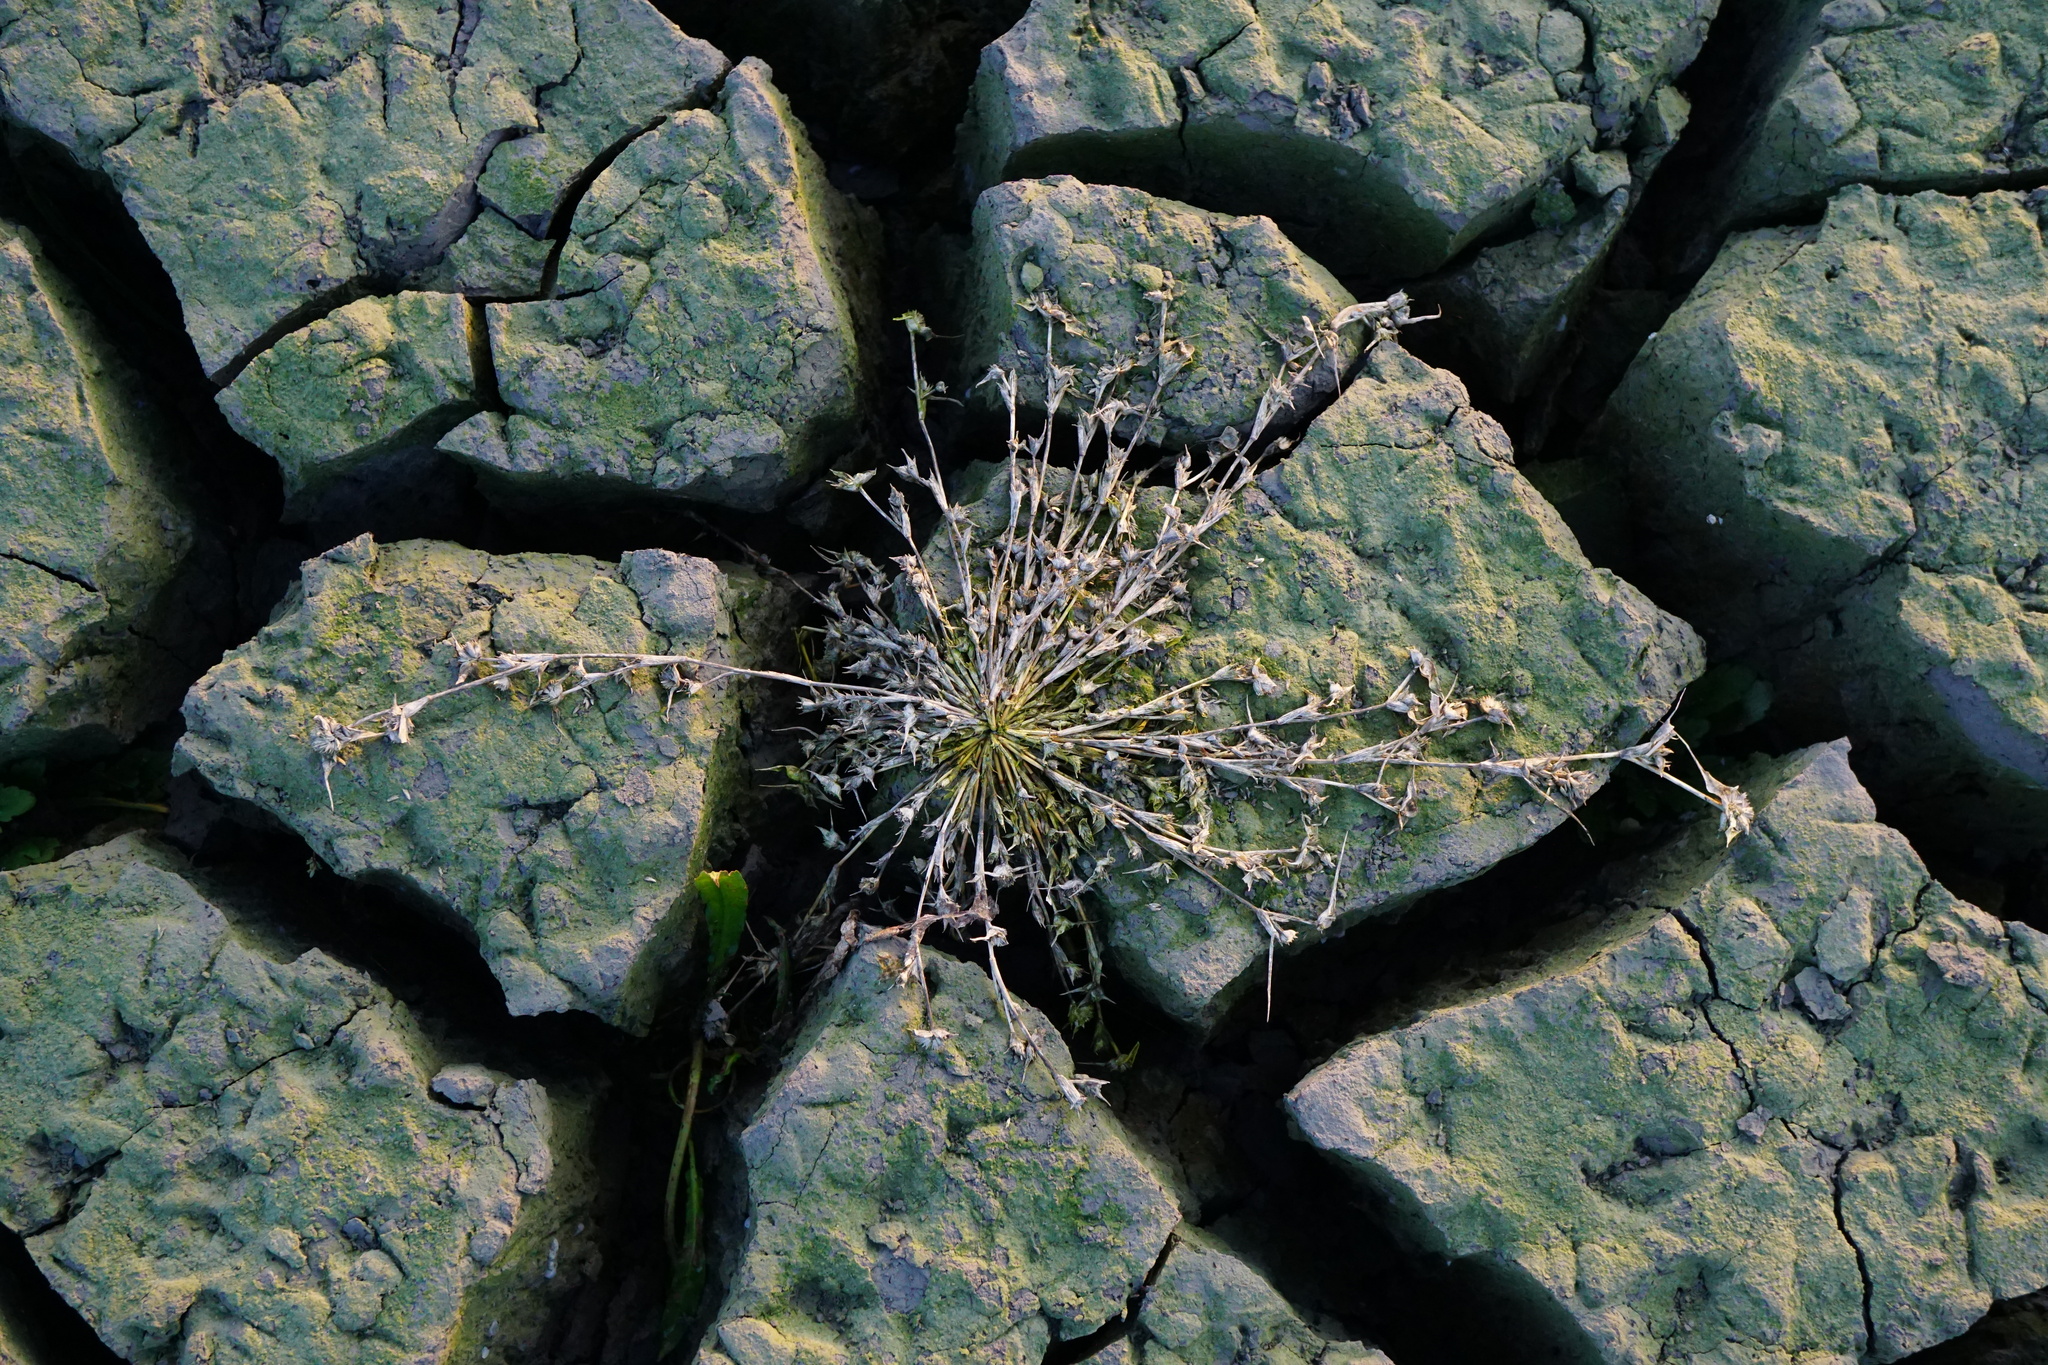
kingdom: Plantae
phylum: Tracheophyta
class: Liliopsida
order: Poales
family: Poaceae
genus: Sporobolus
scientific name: Sporobolus aculeatus
